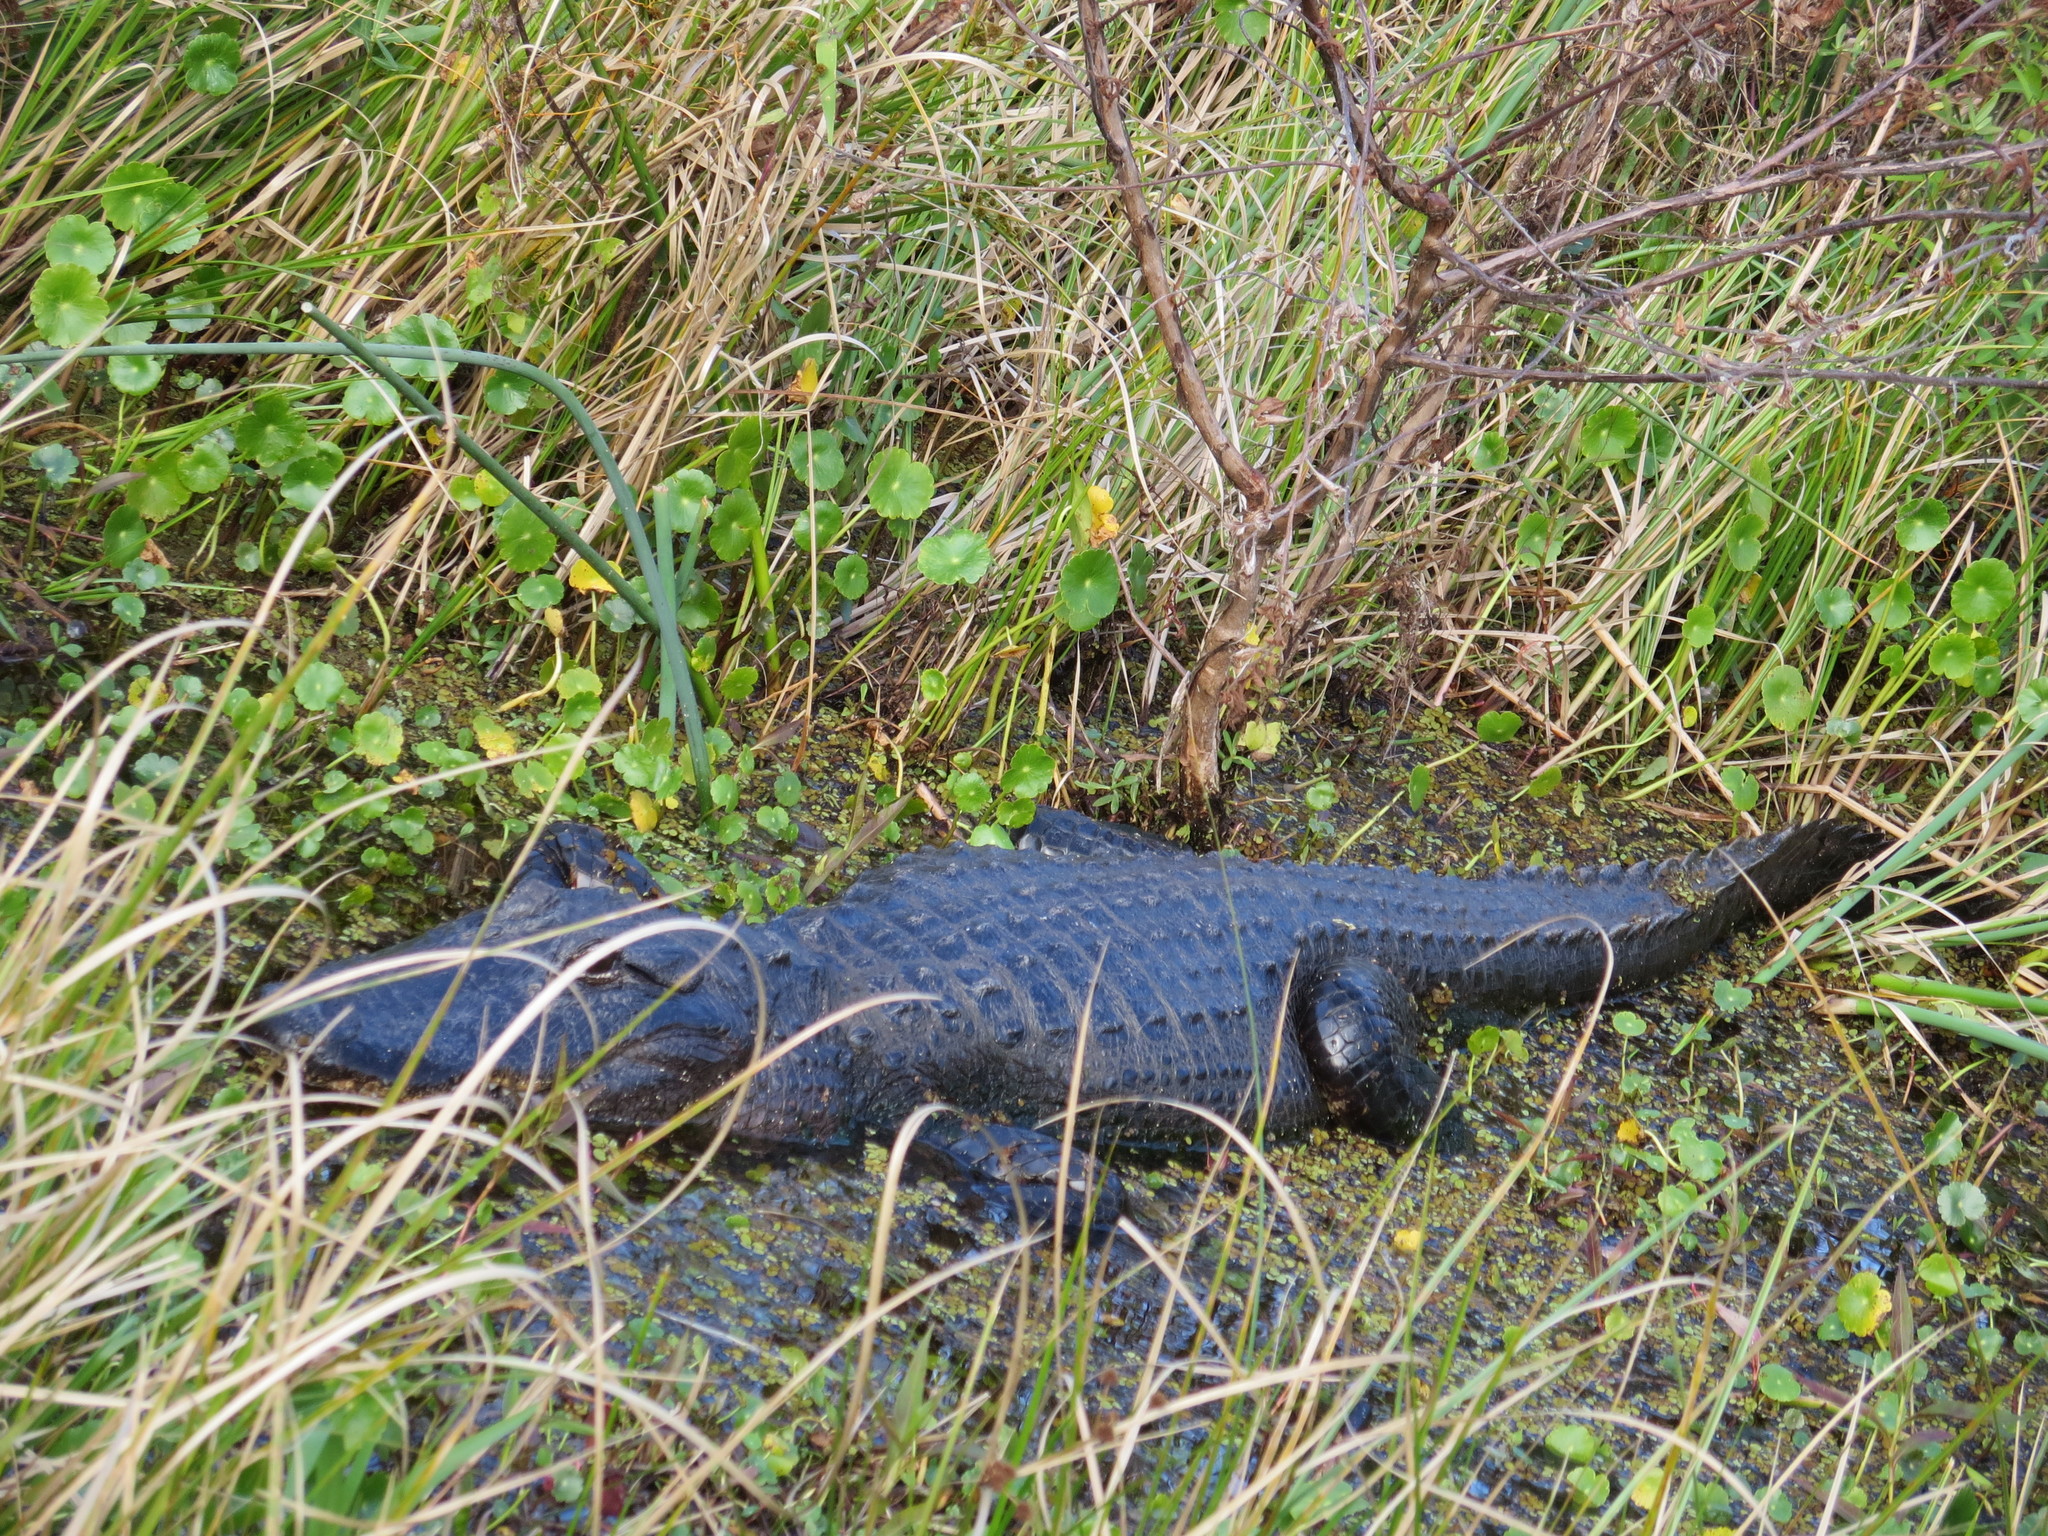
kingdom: Animalia
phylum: Chordata
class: Crocodylia
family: Alligatoridae
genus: Alligator
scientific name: Alligator mississippiensis
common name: American alligator
